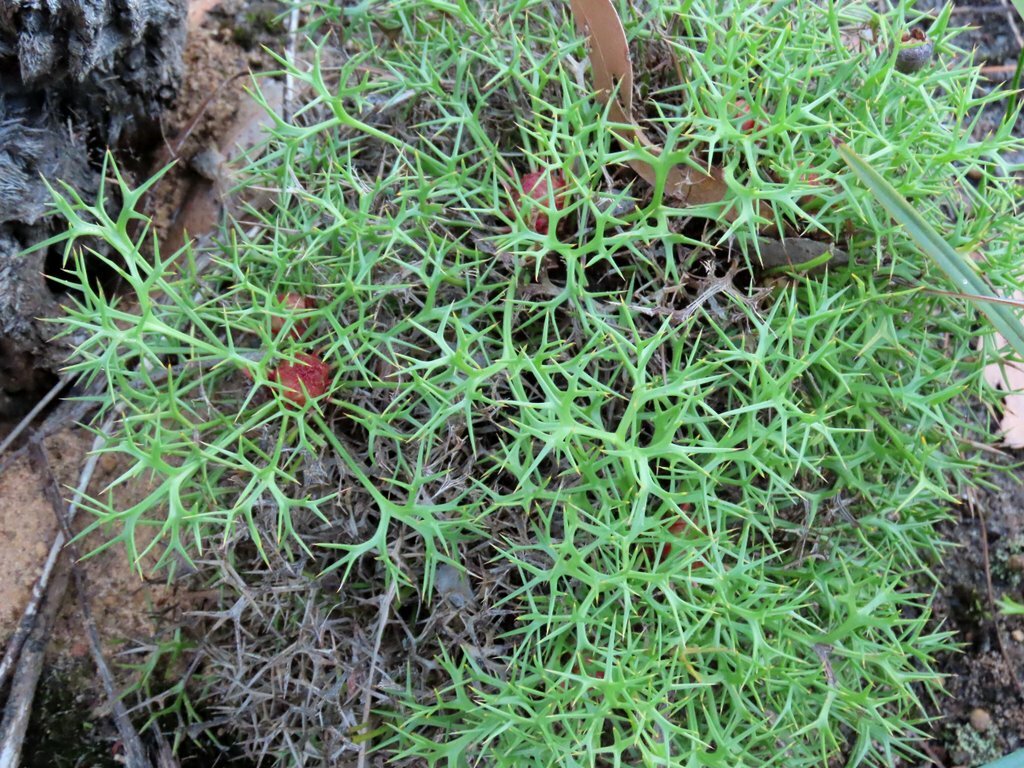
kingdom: Plantae
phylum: Tracheophyta
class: Magnoliopsida
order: Proteales
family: Proteaceae
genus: Isopogon
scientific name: Isopogon ceratophyllus
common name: Horny cone-bush
